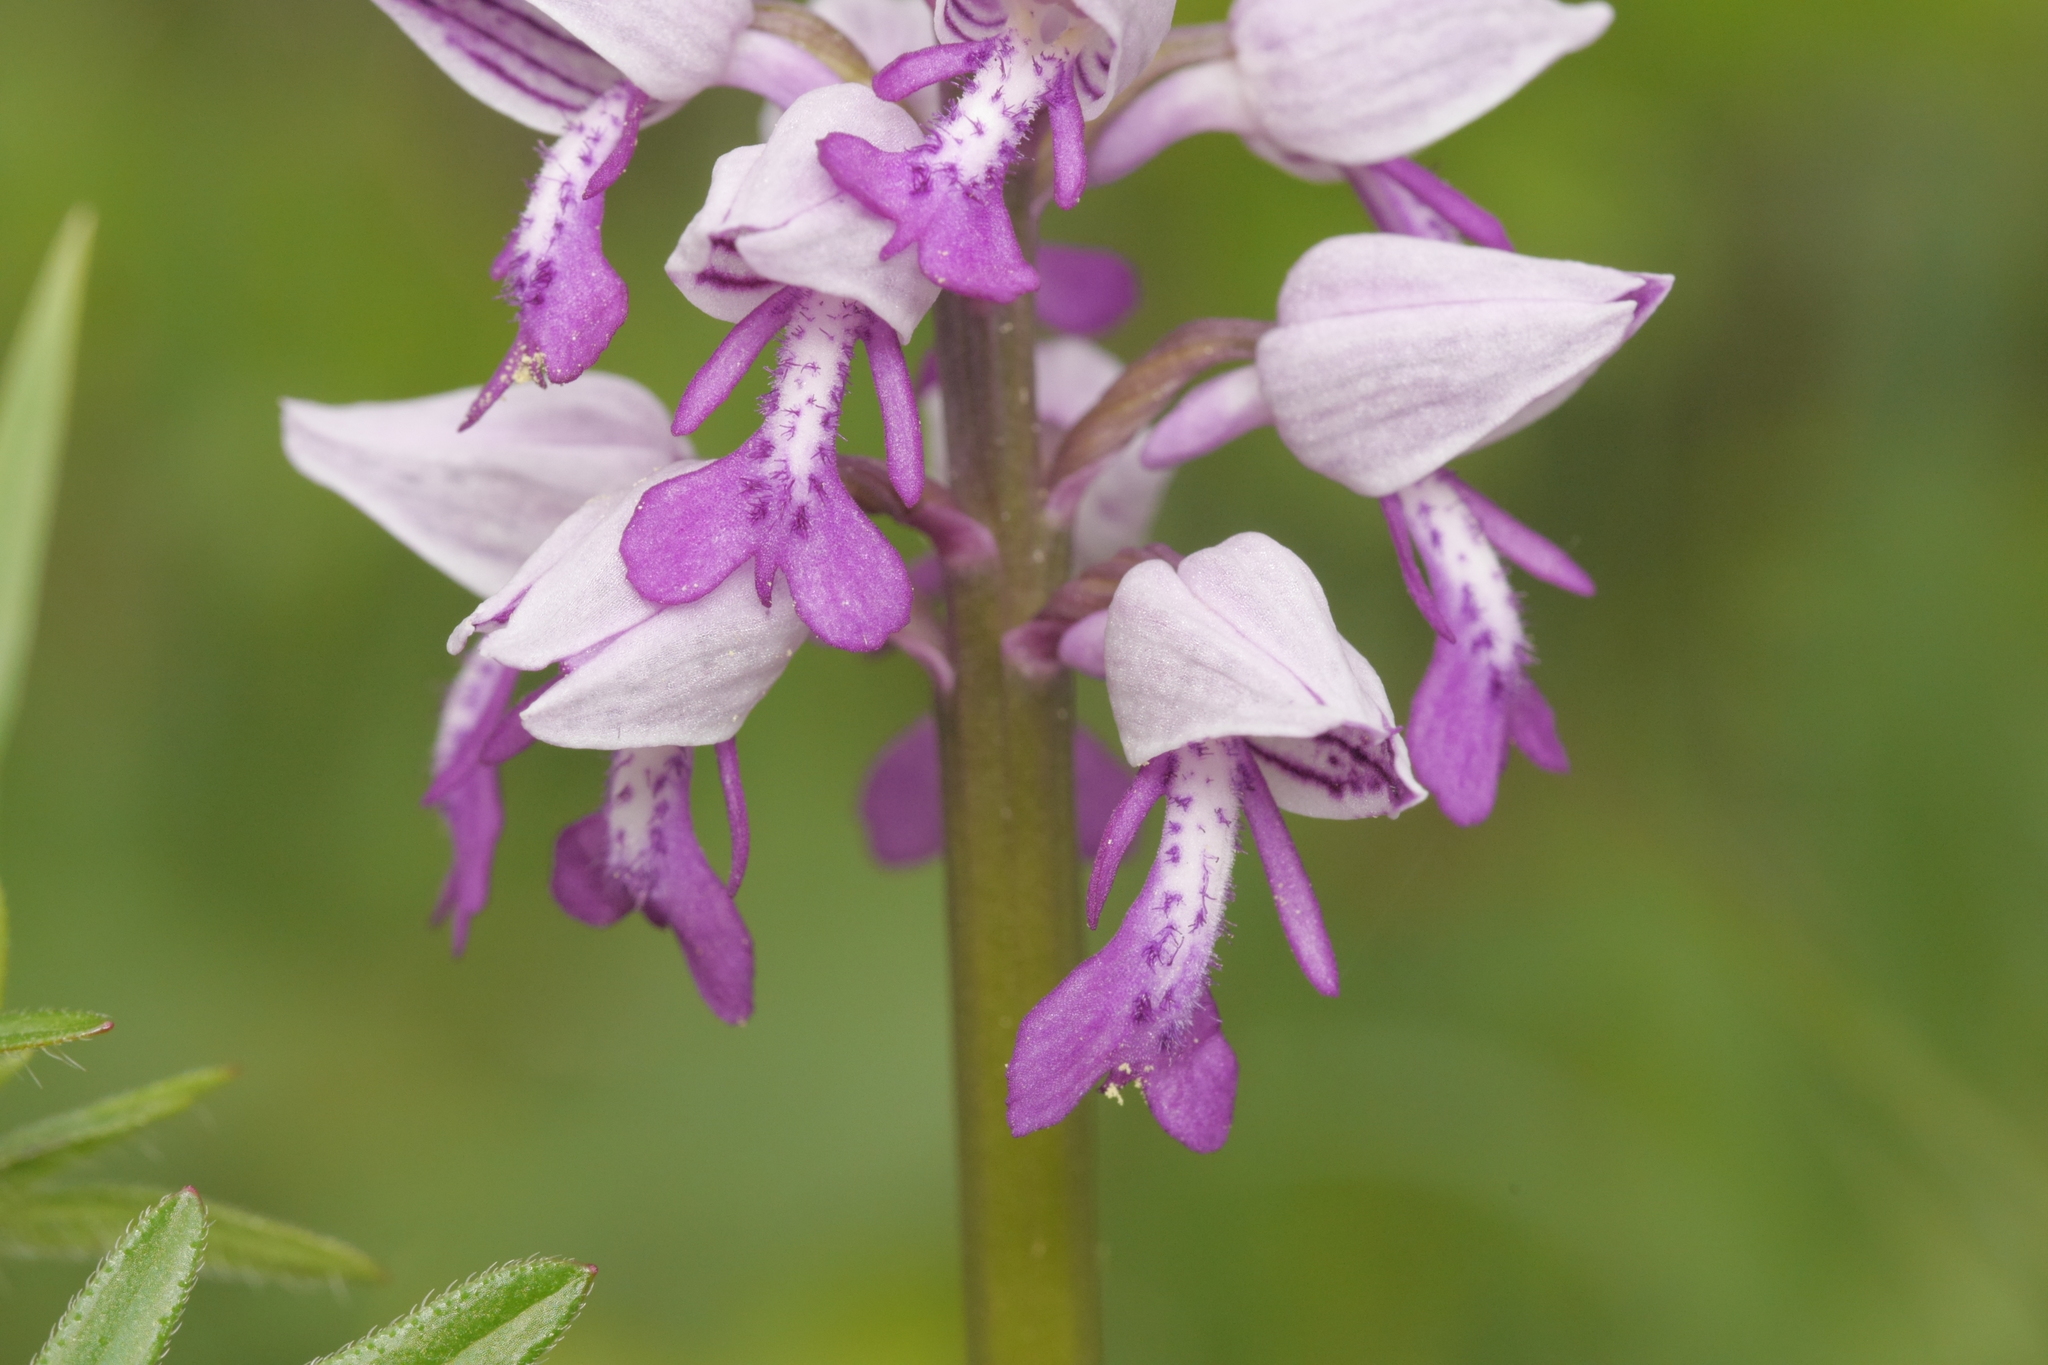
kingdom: Plantae
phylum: Tracheophyta
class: Liliopsida
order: Asparagales
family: Orchidaceae
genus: Orchis
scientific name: Orchis militaris
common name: Military orchid
